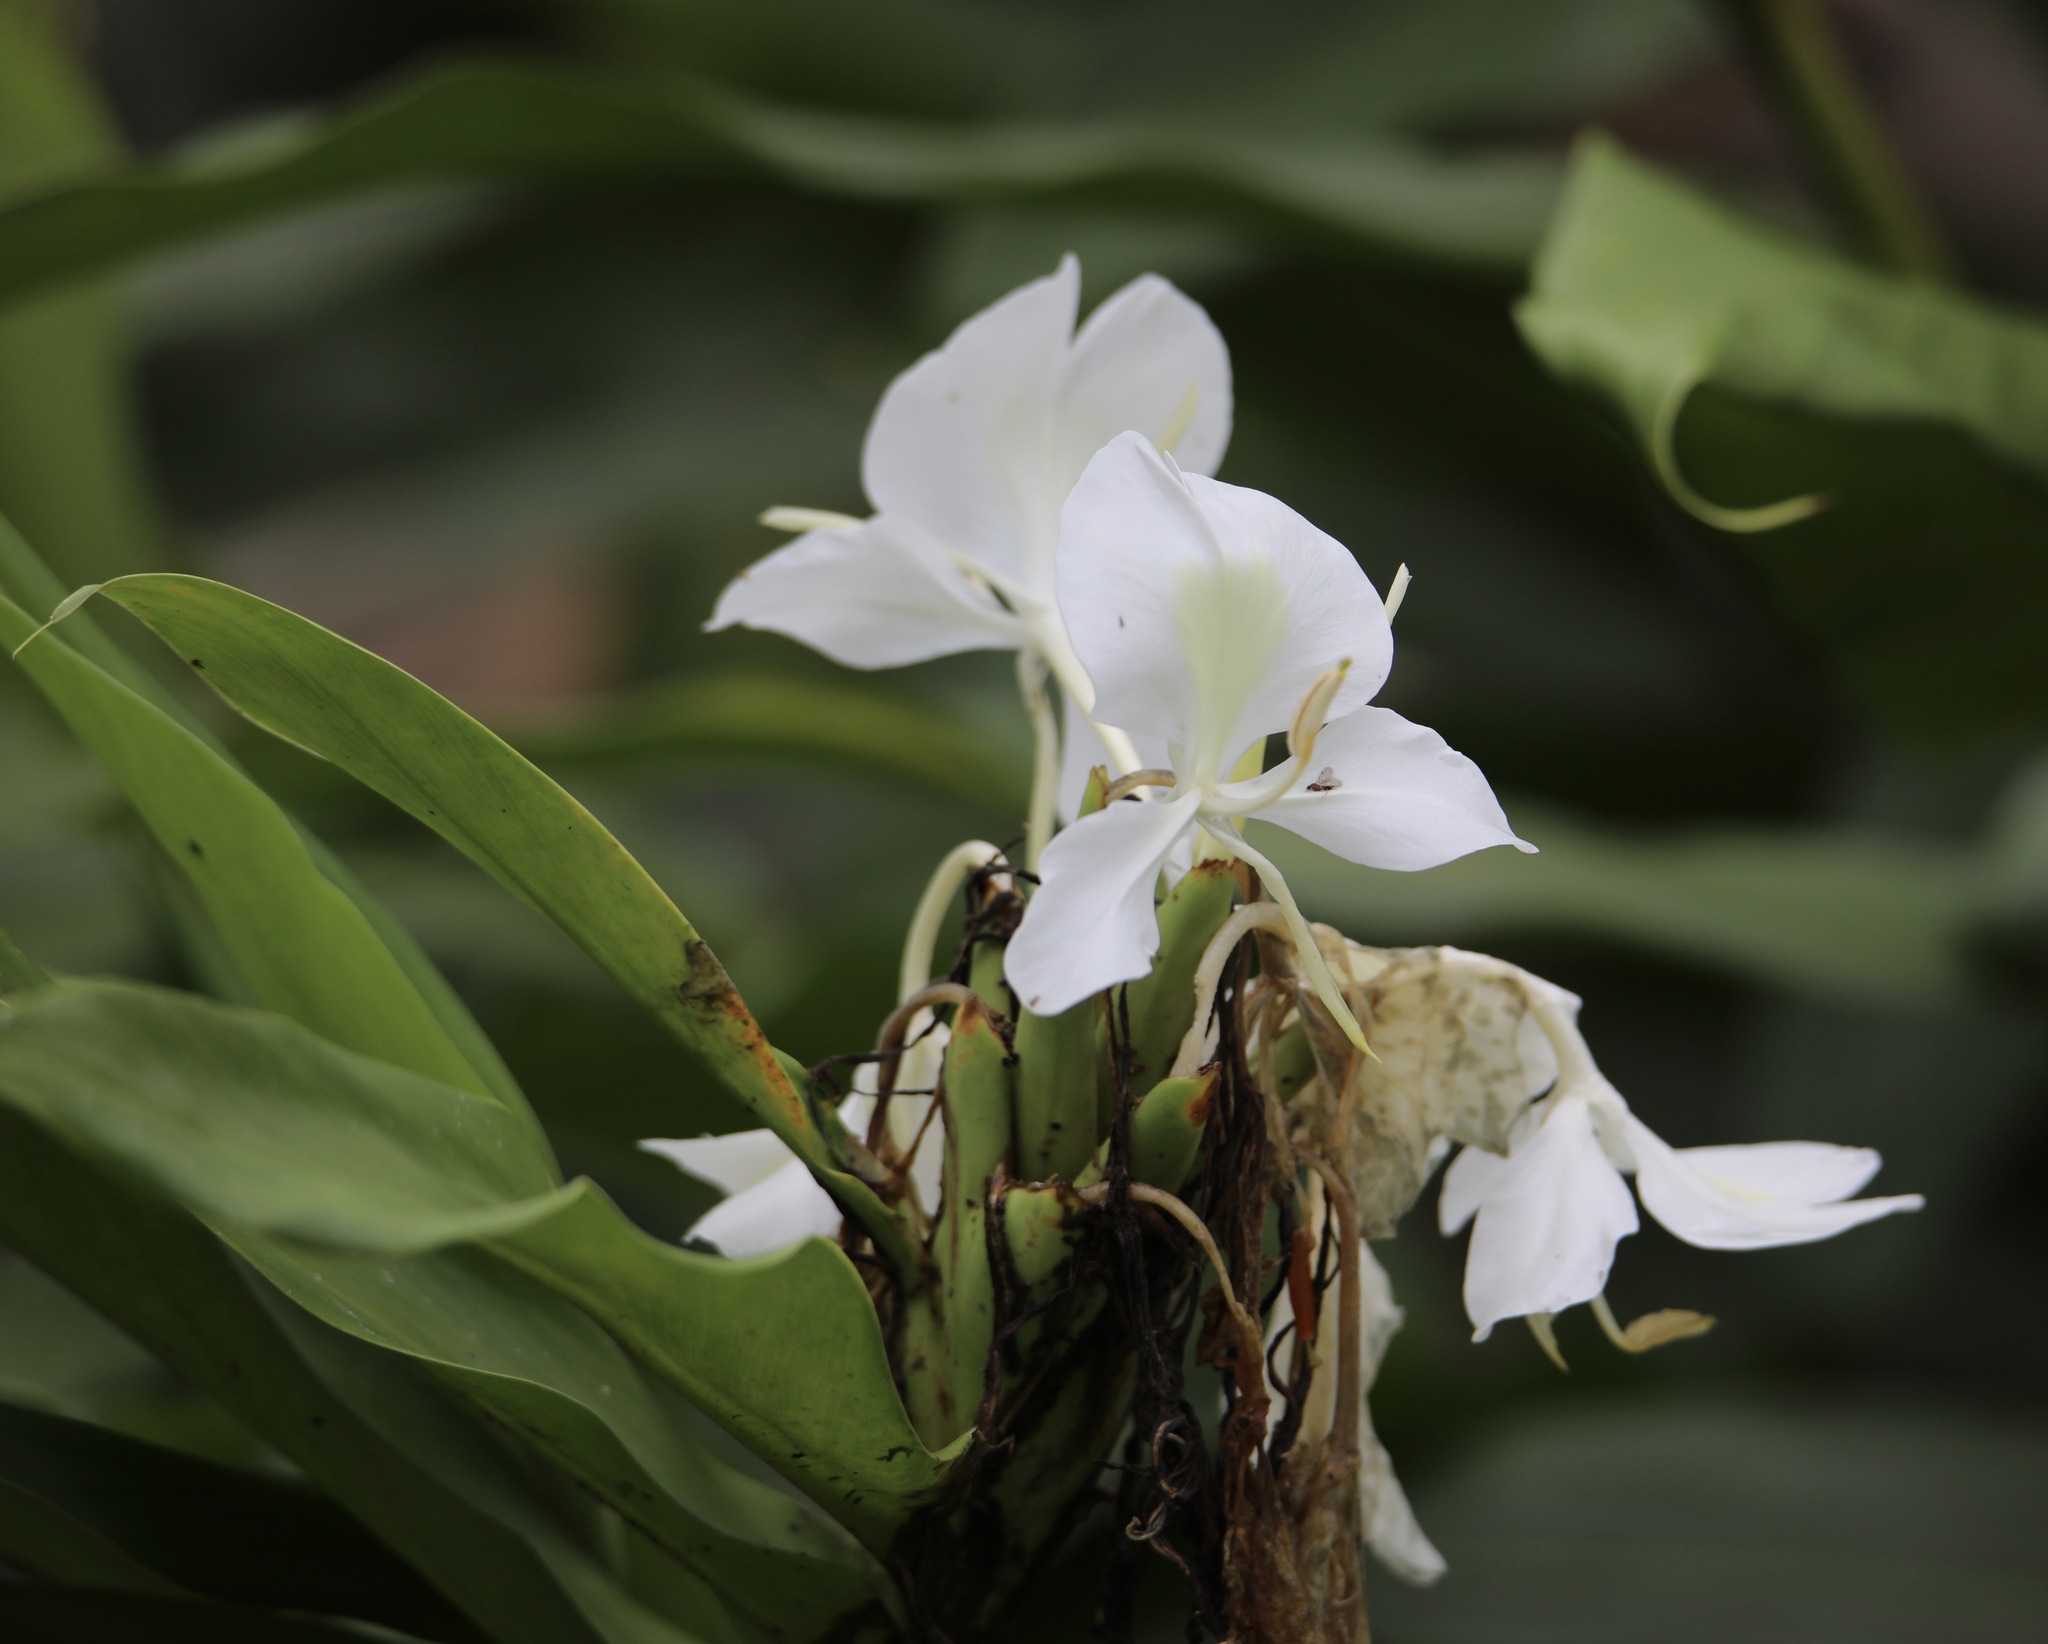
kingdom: Plantae
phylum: Tracheophyta
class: Liliopsida
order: Zingiberales
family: Zingiberaceae
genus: Hedychium
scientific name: Hedychium coronarium
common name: White garland-lily
